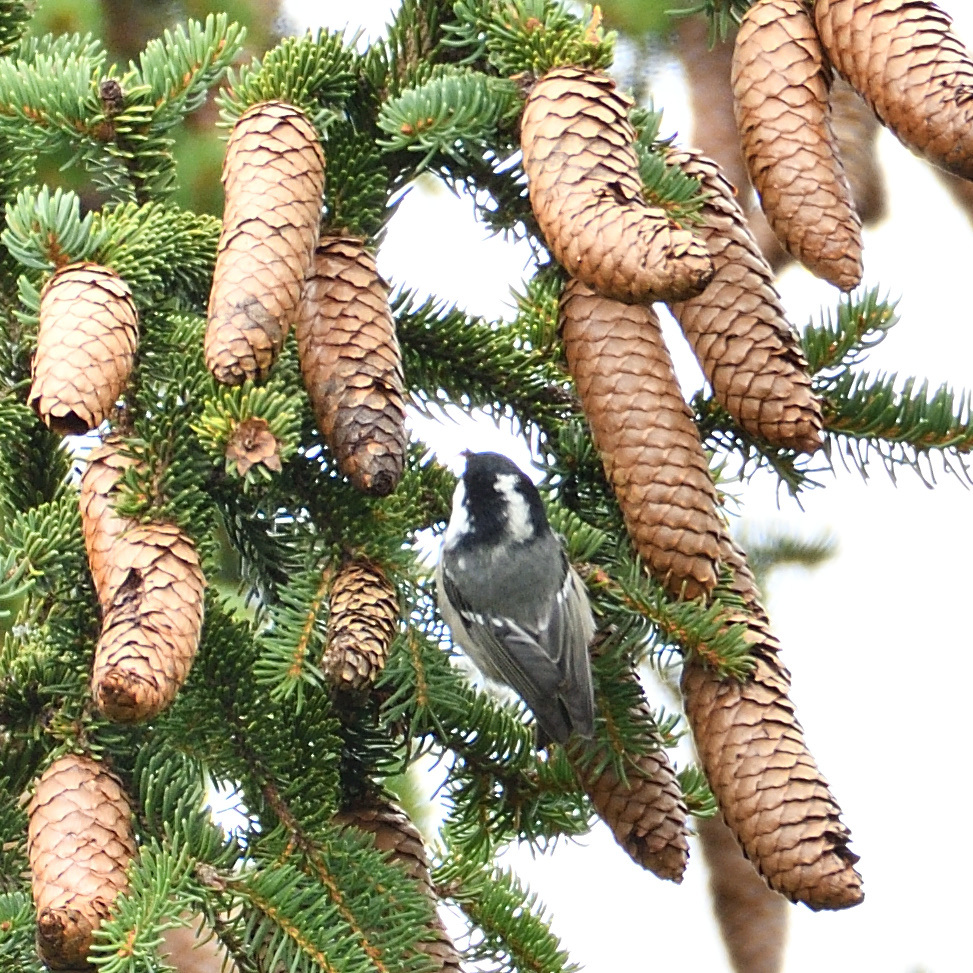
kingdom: Animalia
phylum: Chordata
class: Aves
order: Passeriformes
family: Paridae
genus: Periparus
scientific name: Periparus ater
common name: Coal tit
